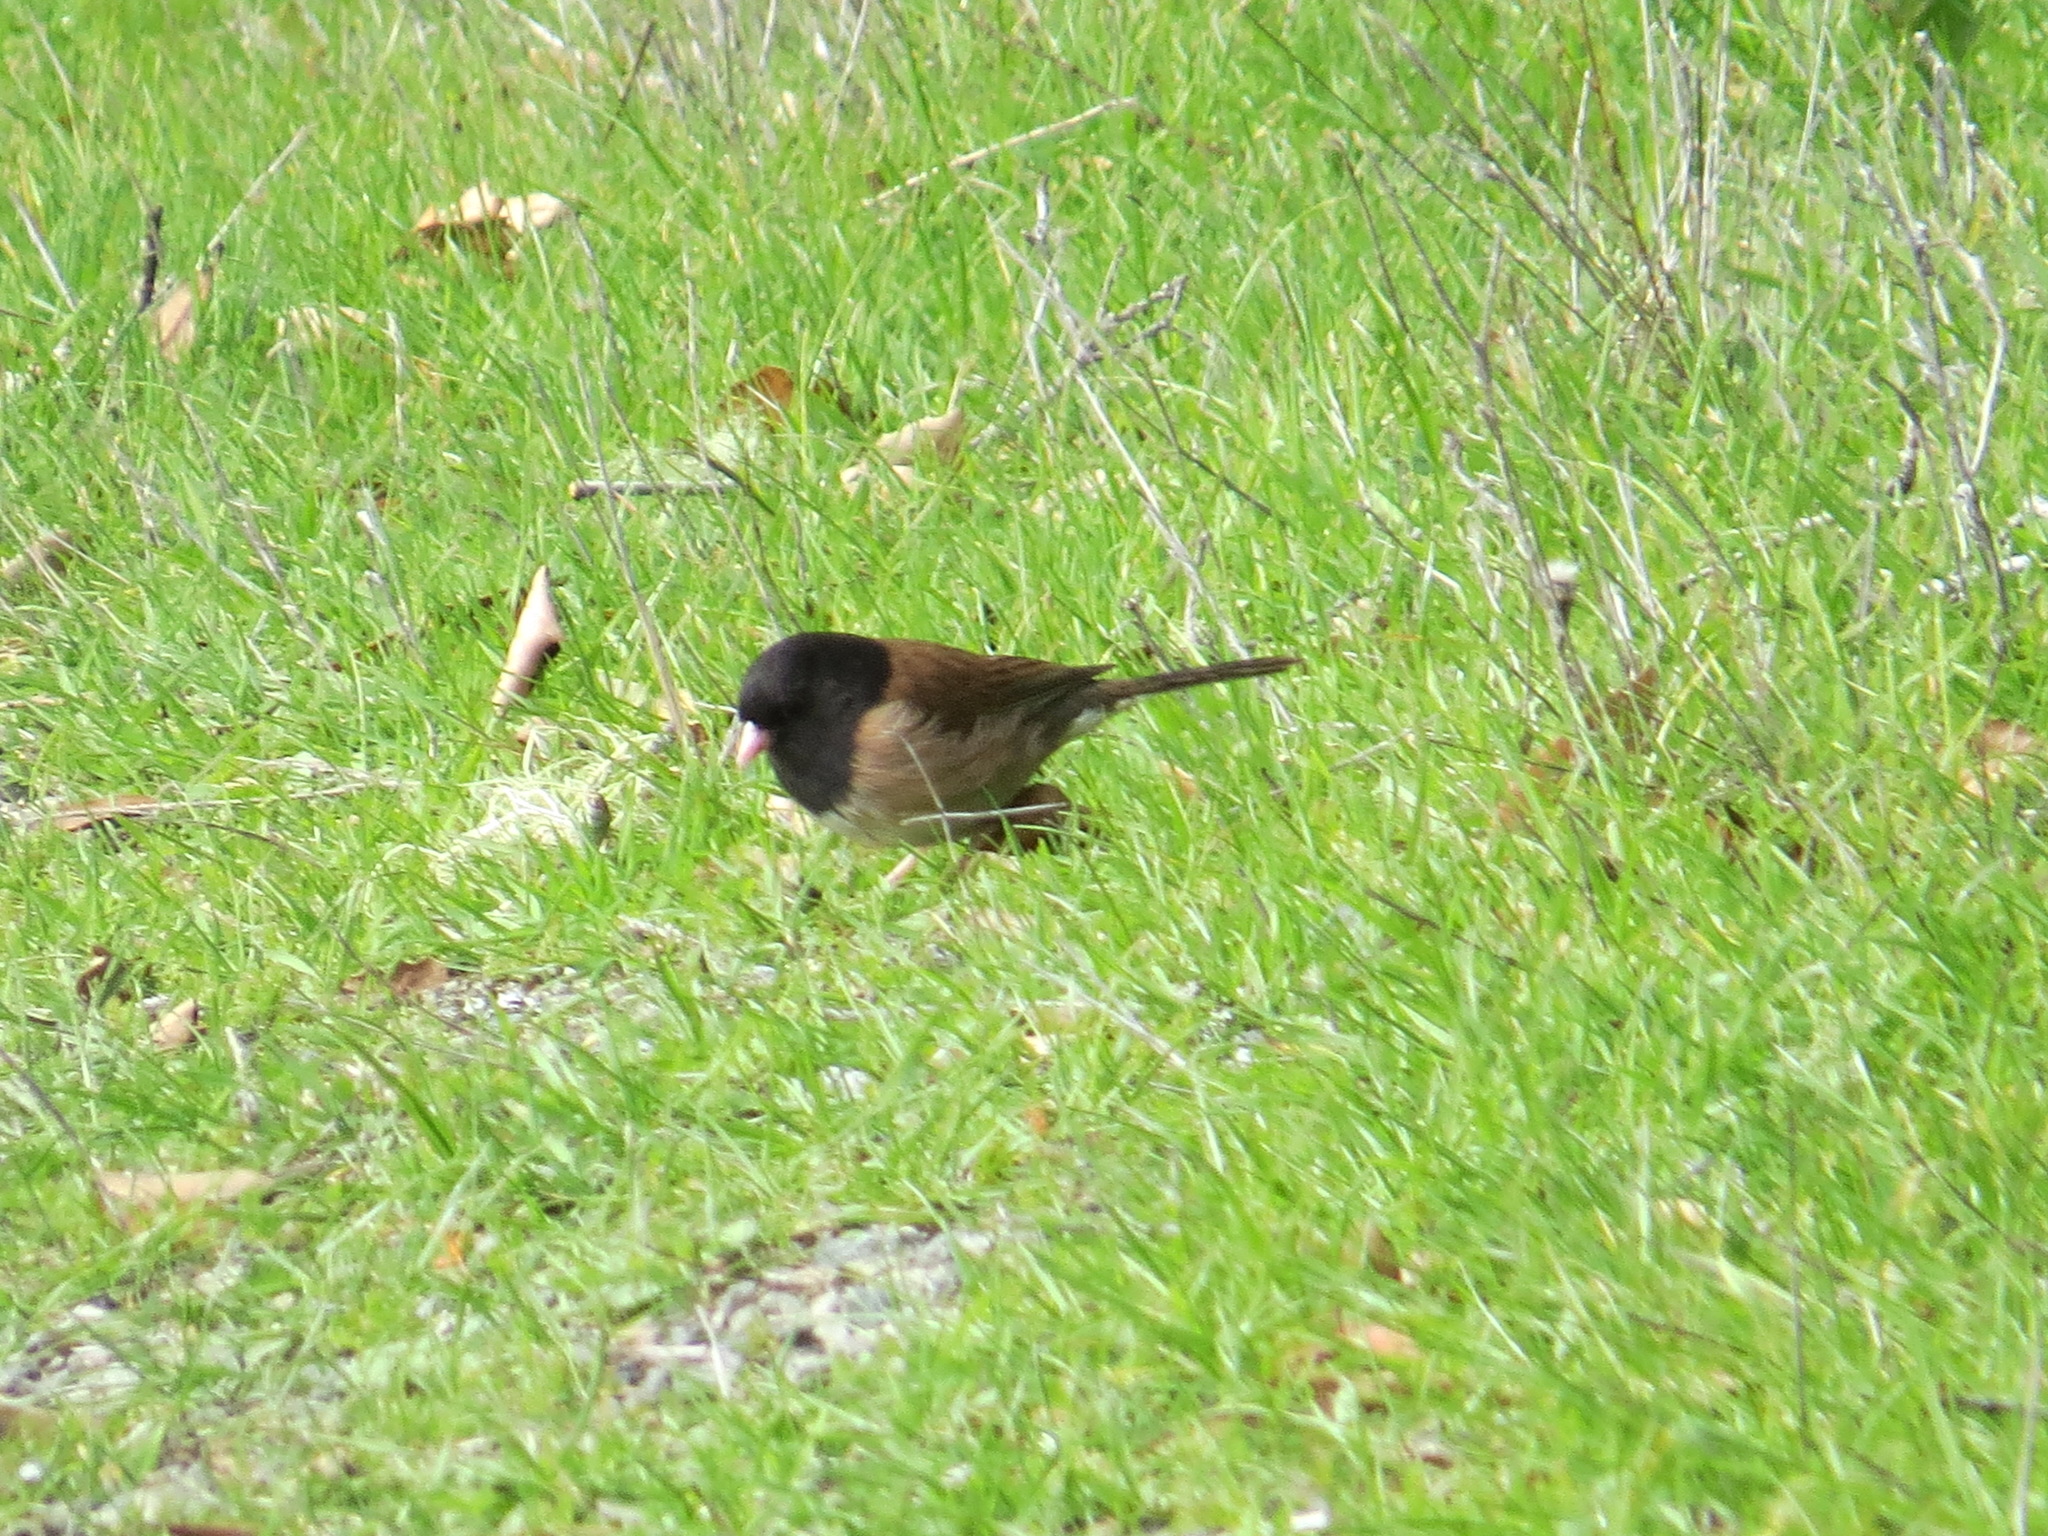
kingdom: Animalia
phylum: Chordata
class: Aves
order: Passeriformes
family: Passerellidae
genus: Junco
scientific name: Junco hyemalis
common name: Dark-eyed junco
